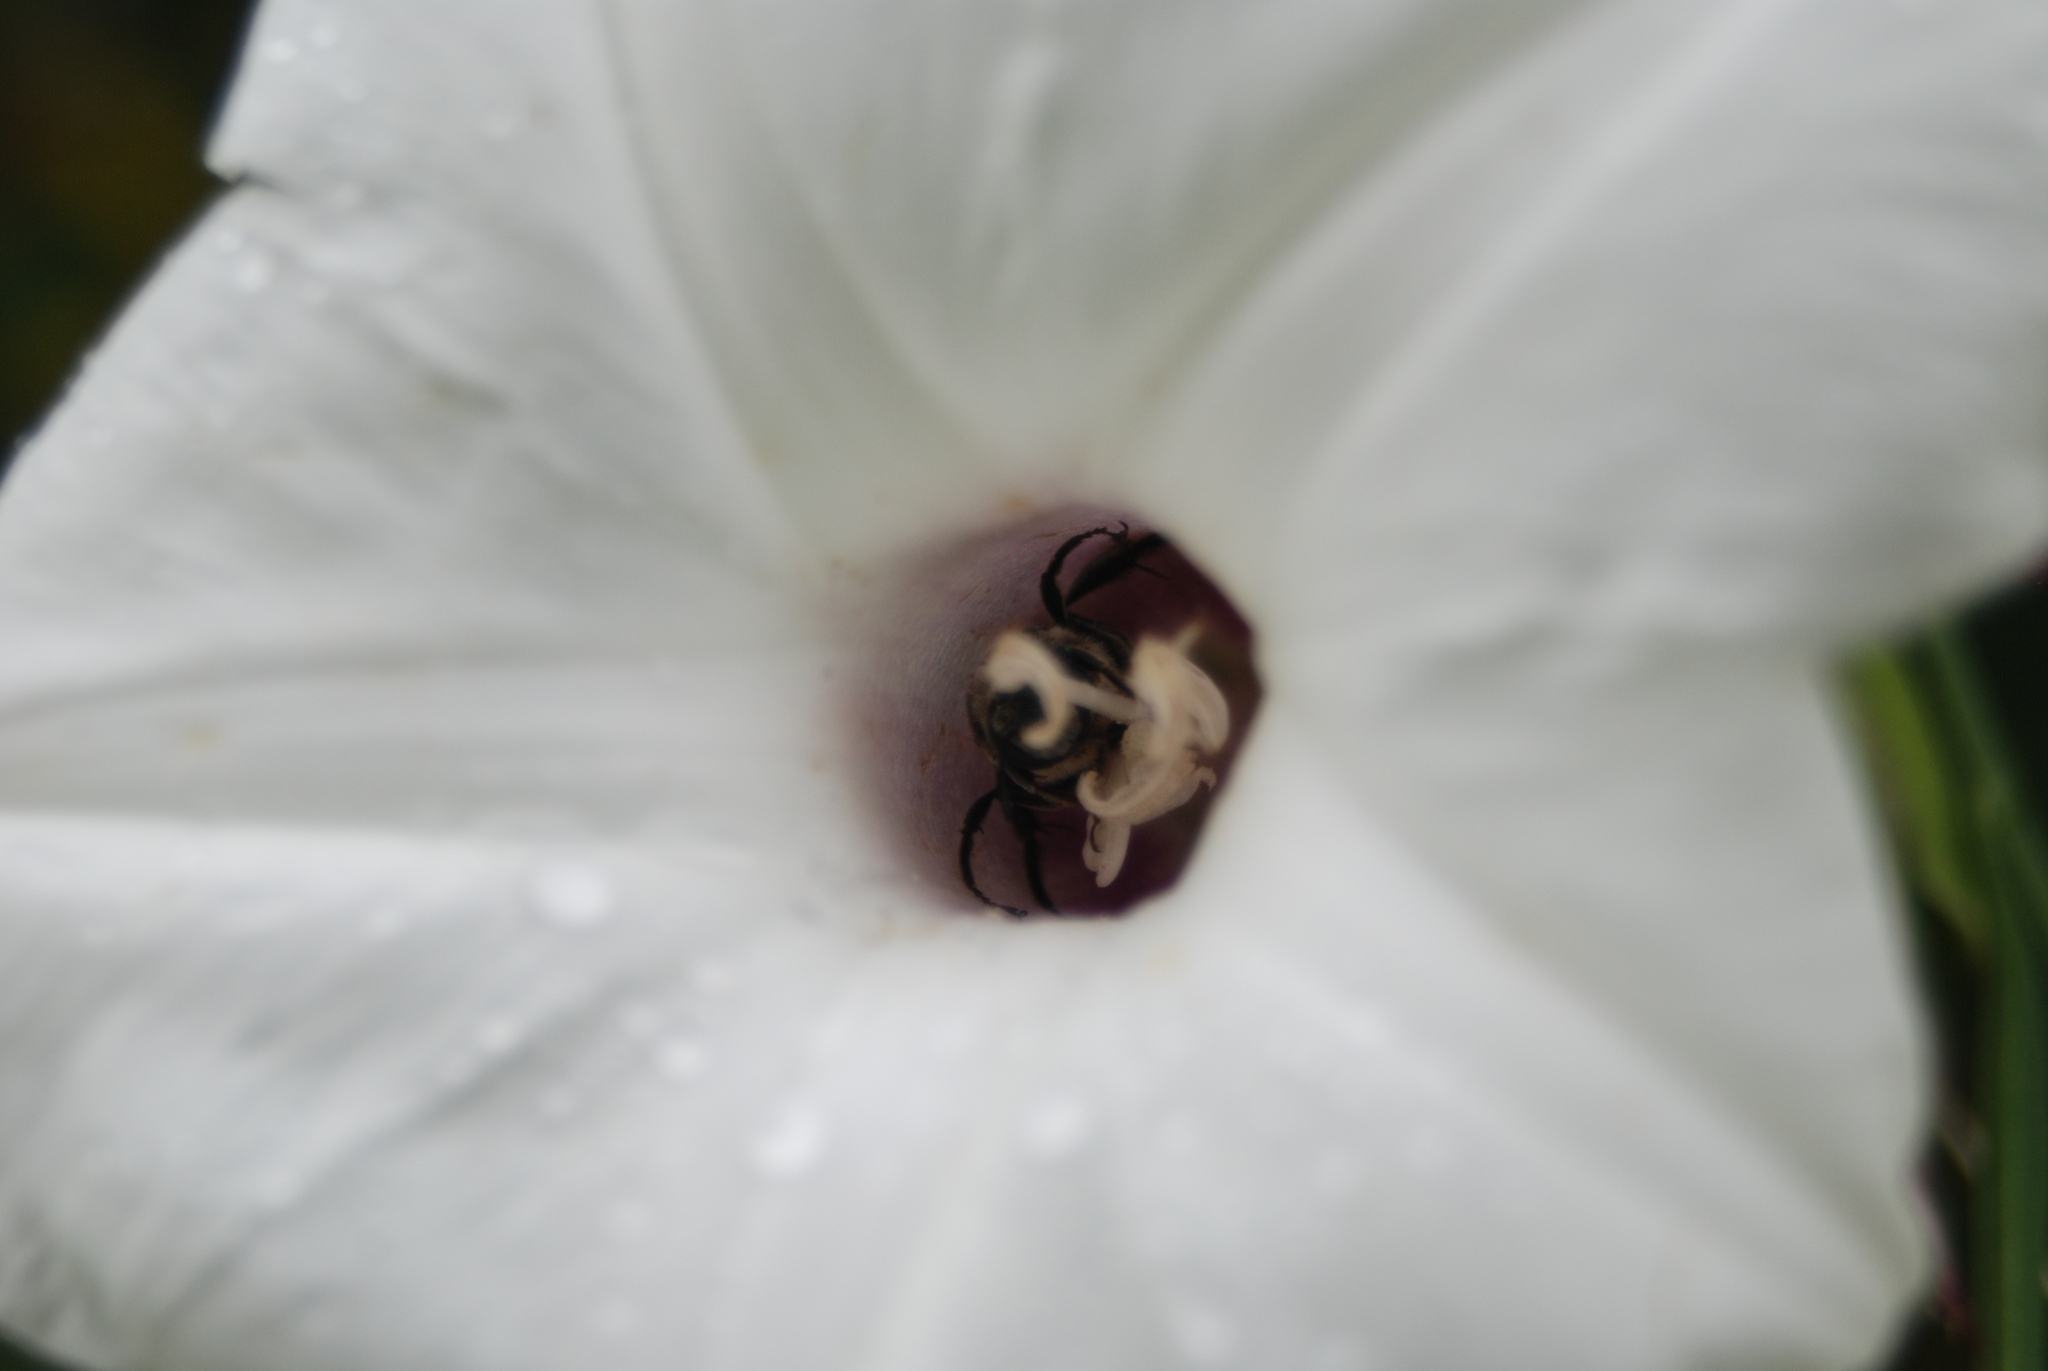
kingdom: Animalia
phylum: Arthropoda
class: Insecta
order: Hymenoptera
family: Apidae
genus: Melitoma
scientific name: Melitoma taurea
